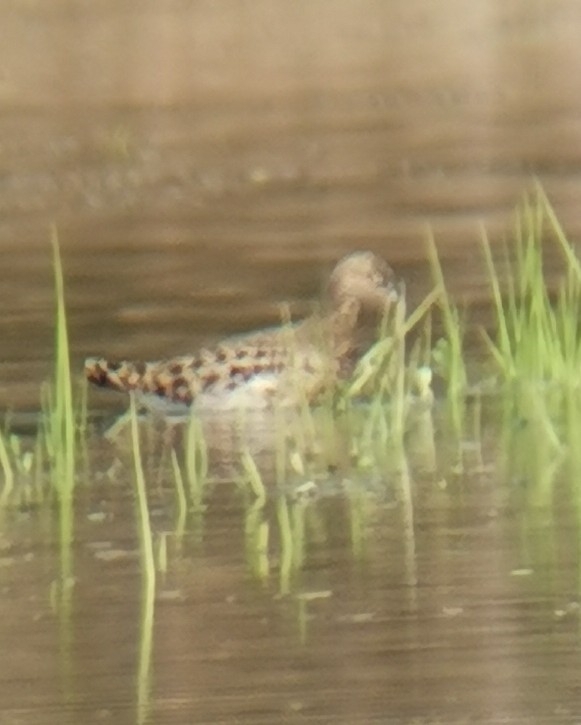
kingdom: Animalia
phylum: Chordata
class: Aves
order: Charadriiformes
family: Scolopacidae
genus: Calidris
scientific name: Calidris pugnax
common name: Ruff
